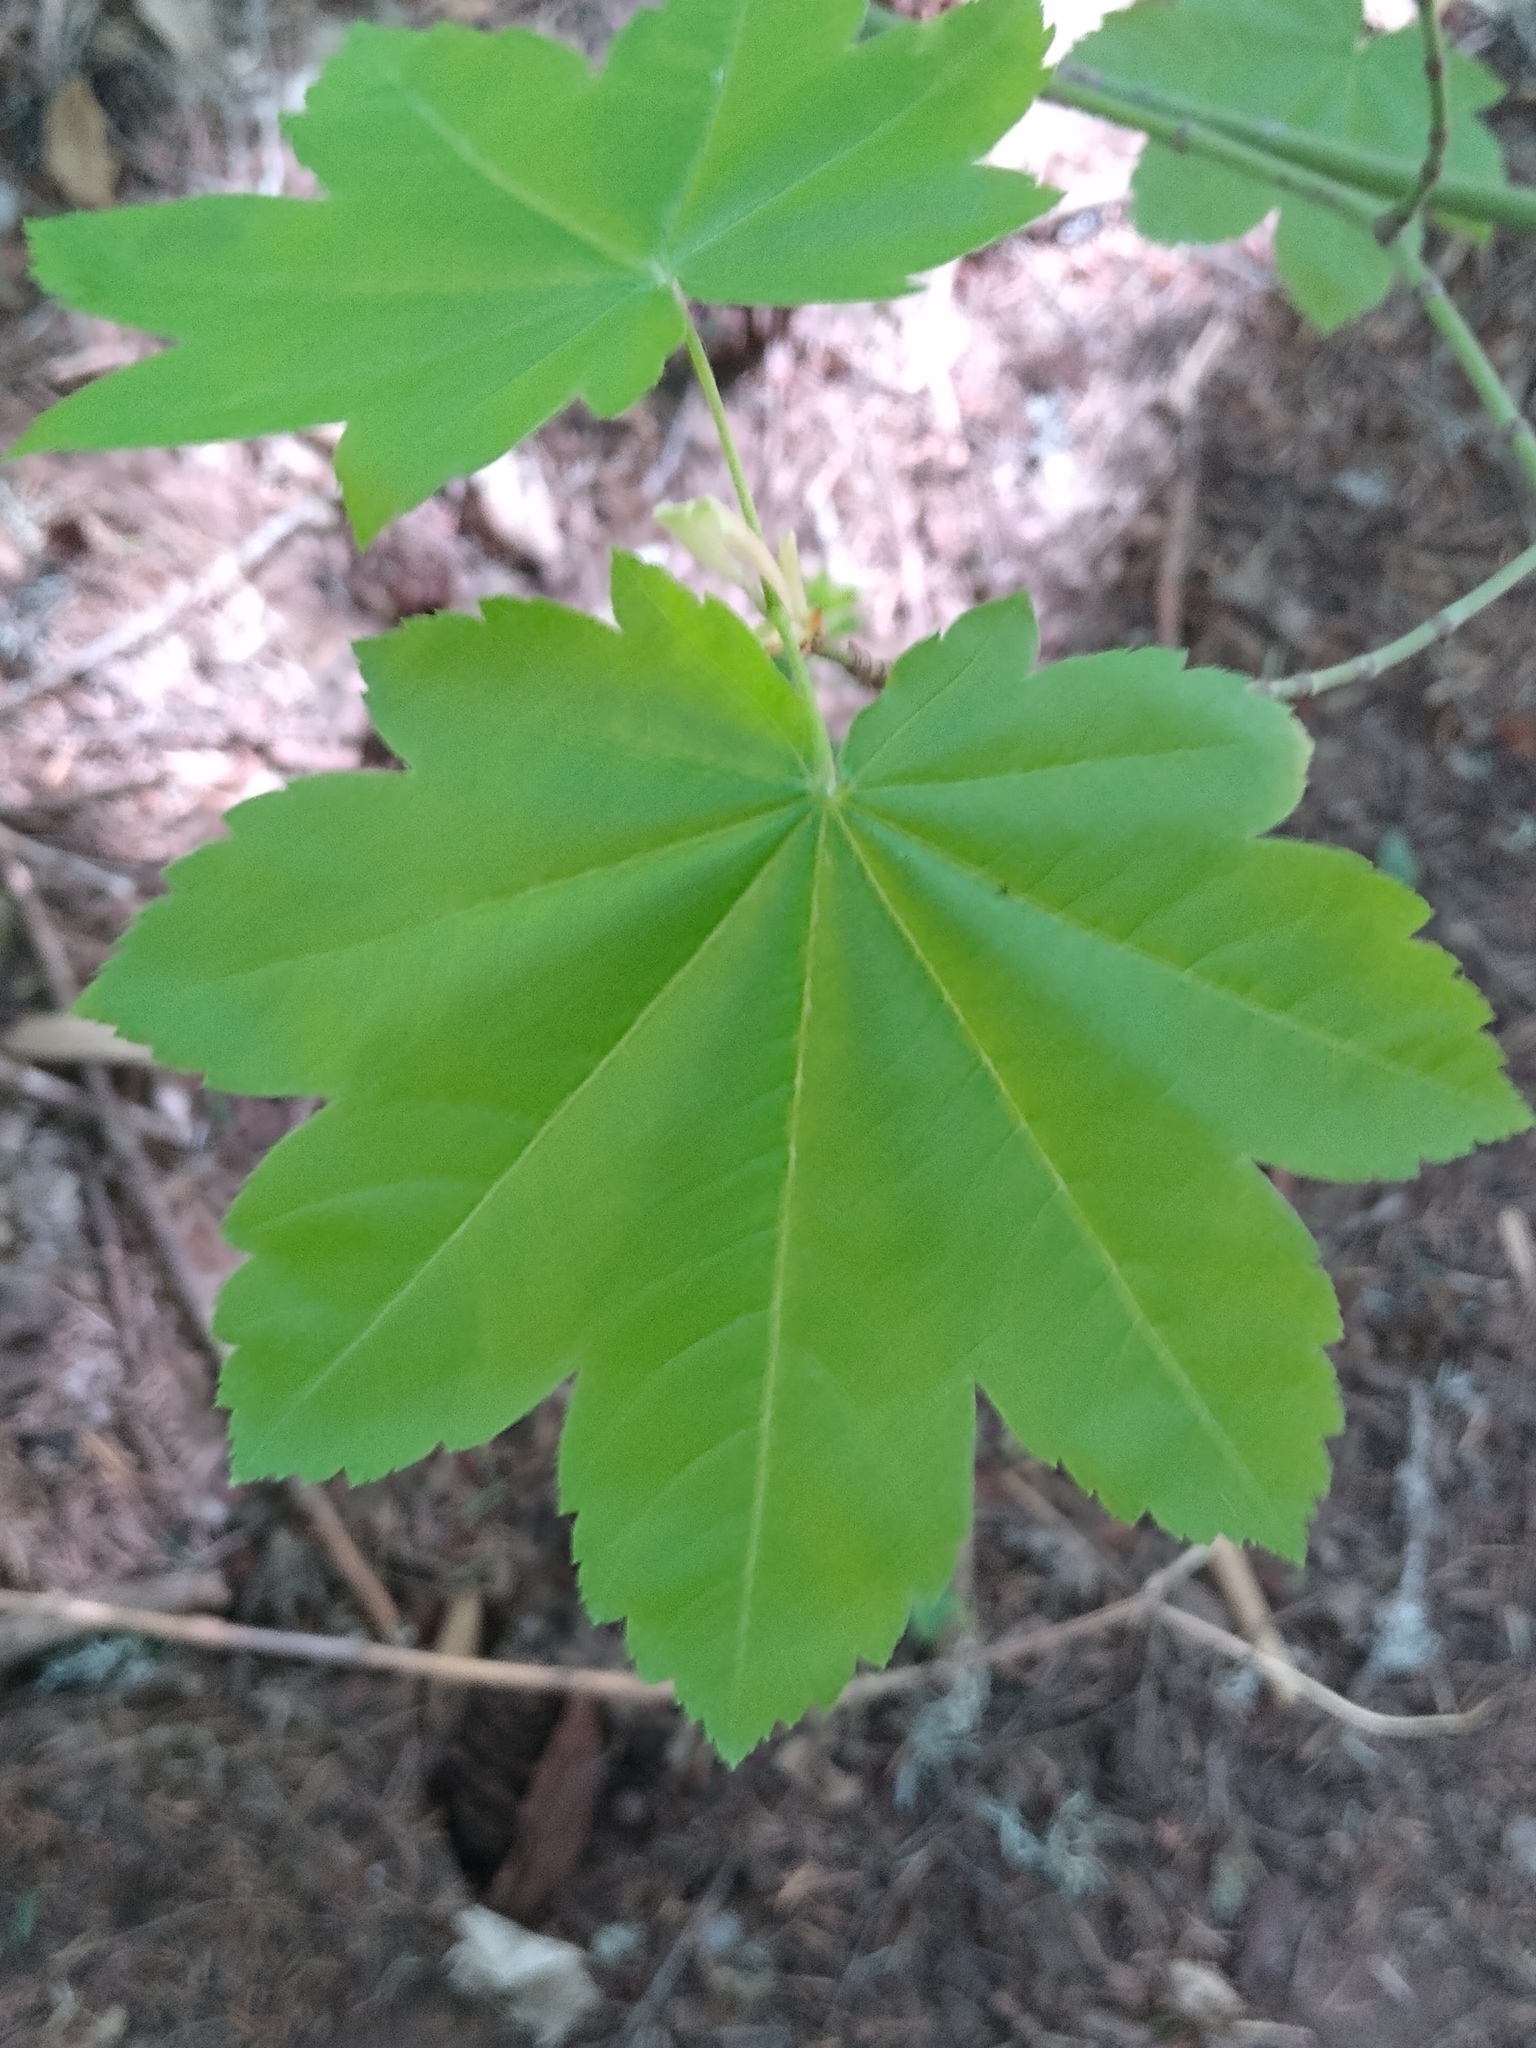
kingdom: Plantae
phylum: Tracheophyta
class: Magnoliopsida
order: Sapindales
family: Sapindaceae
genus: Acer
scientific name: Acer circinatum
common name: Vine maple
